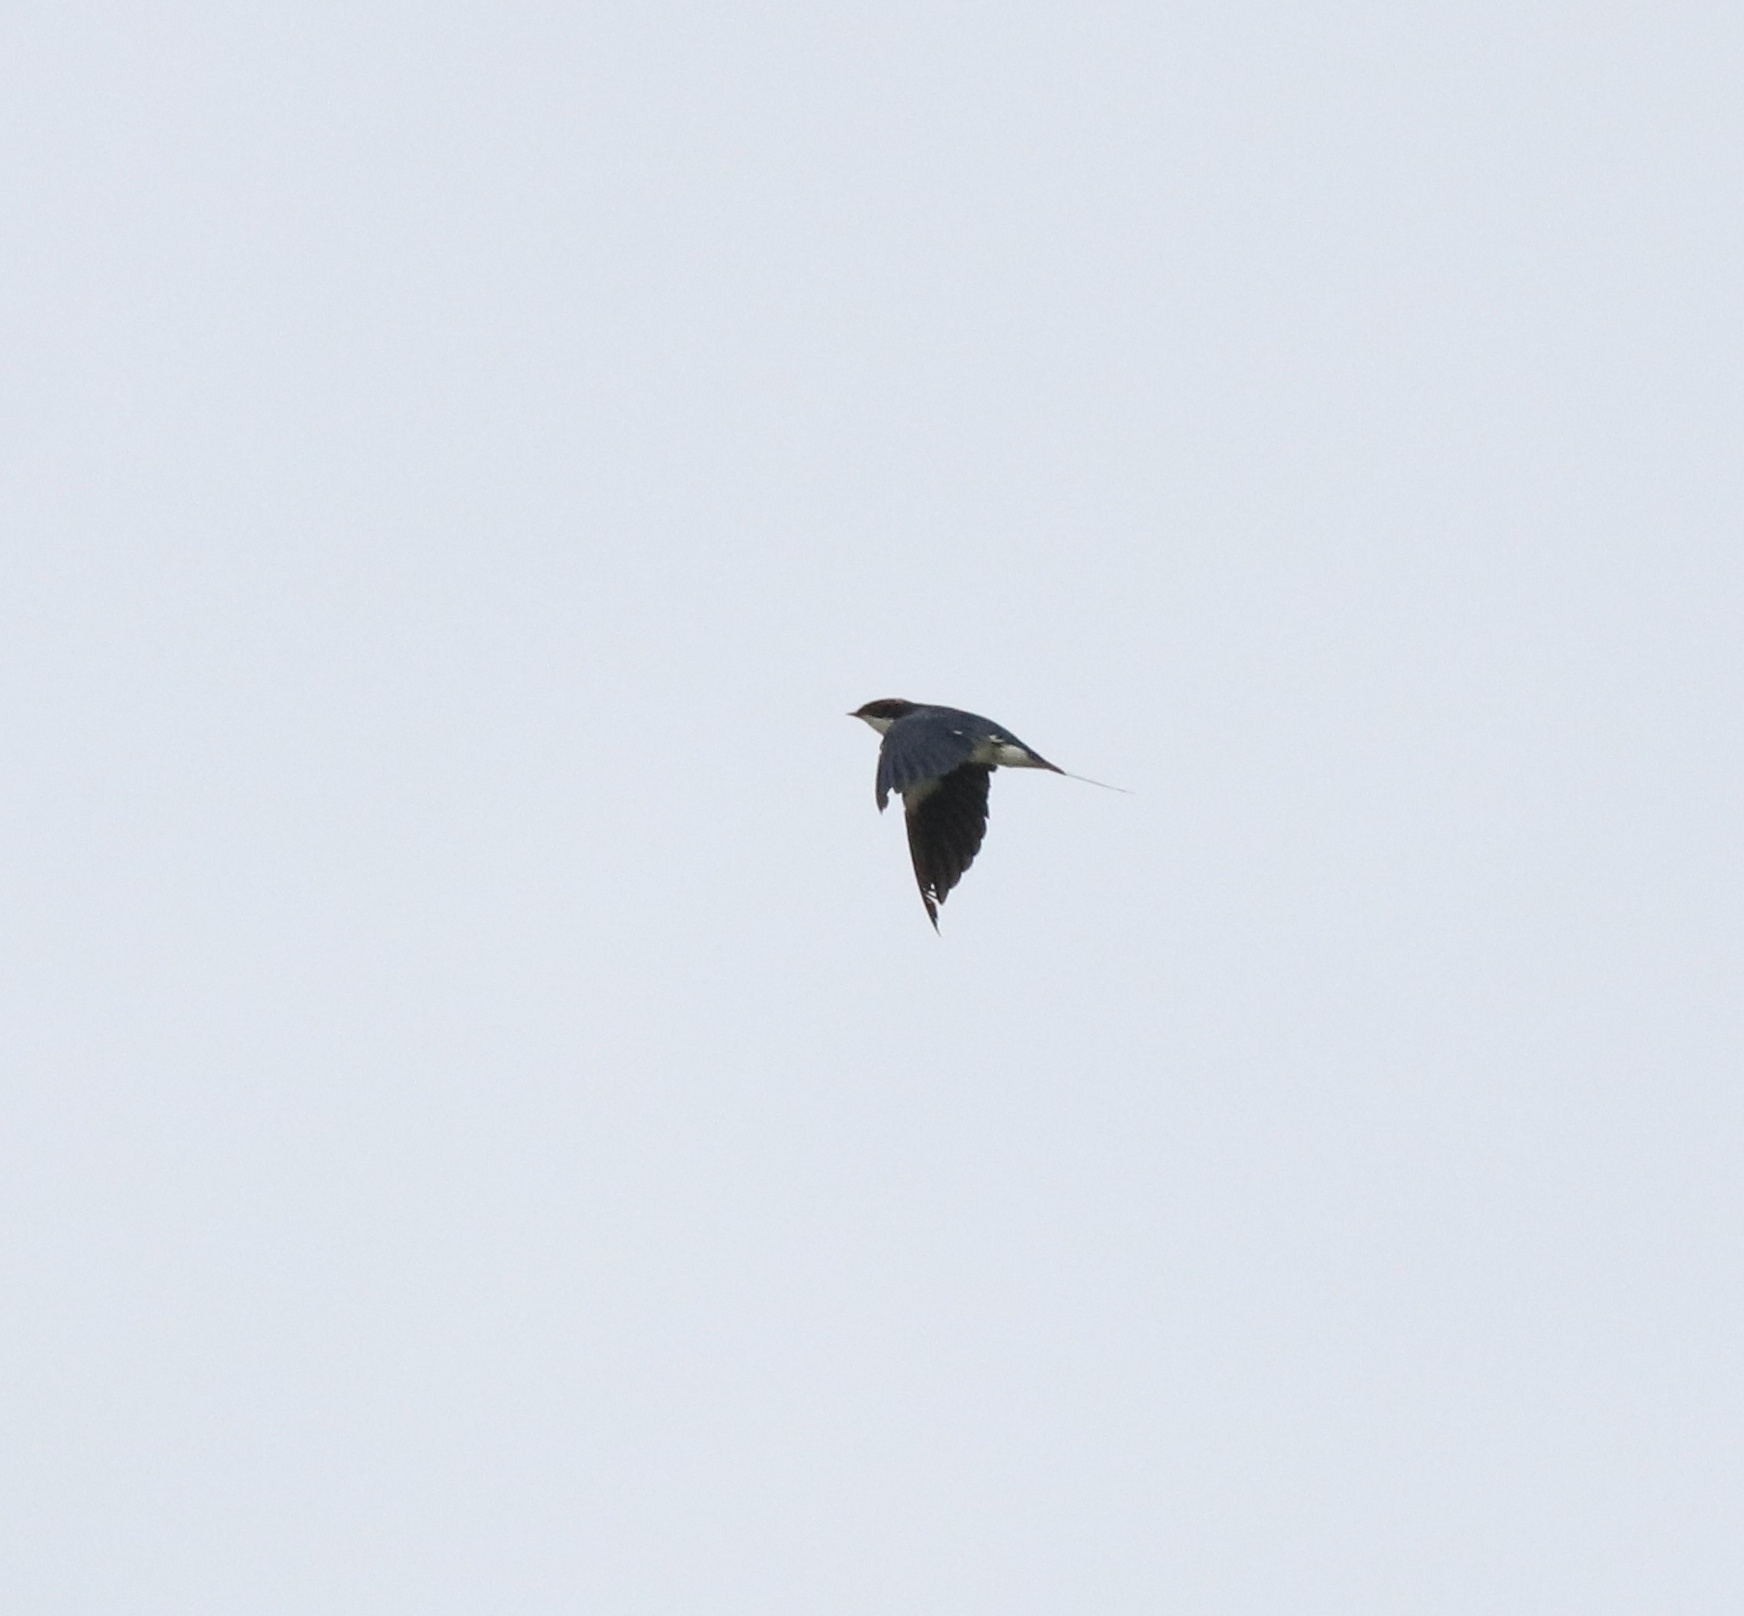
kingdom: Animalia
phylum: Chordata
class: Aves
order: Passeriformes
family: Hirundinidae
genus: Hirundo
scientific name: Hirundo smithii
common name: Wire-tailed swallow
